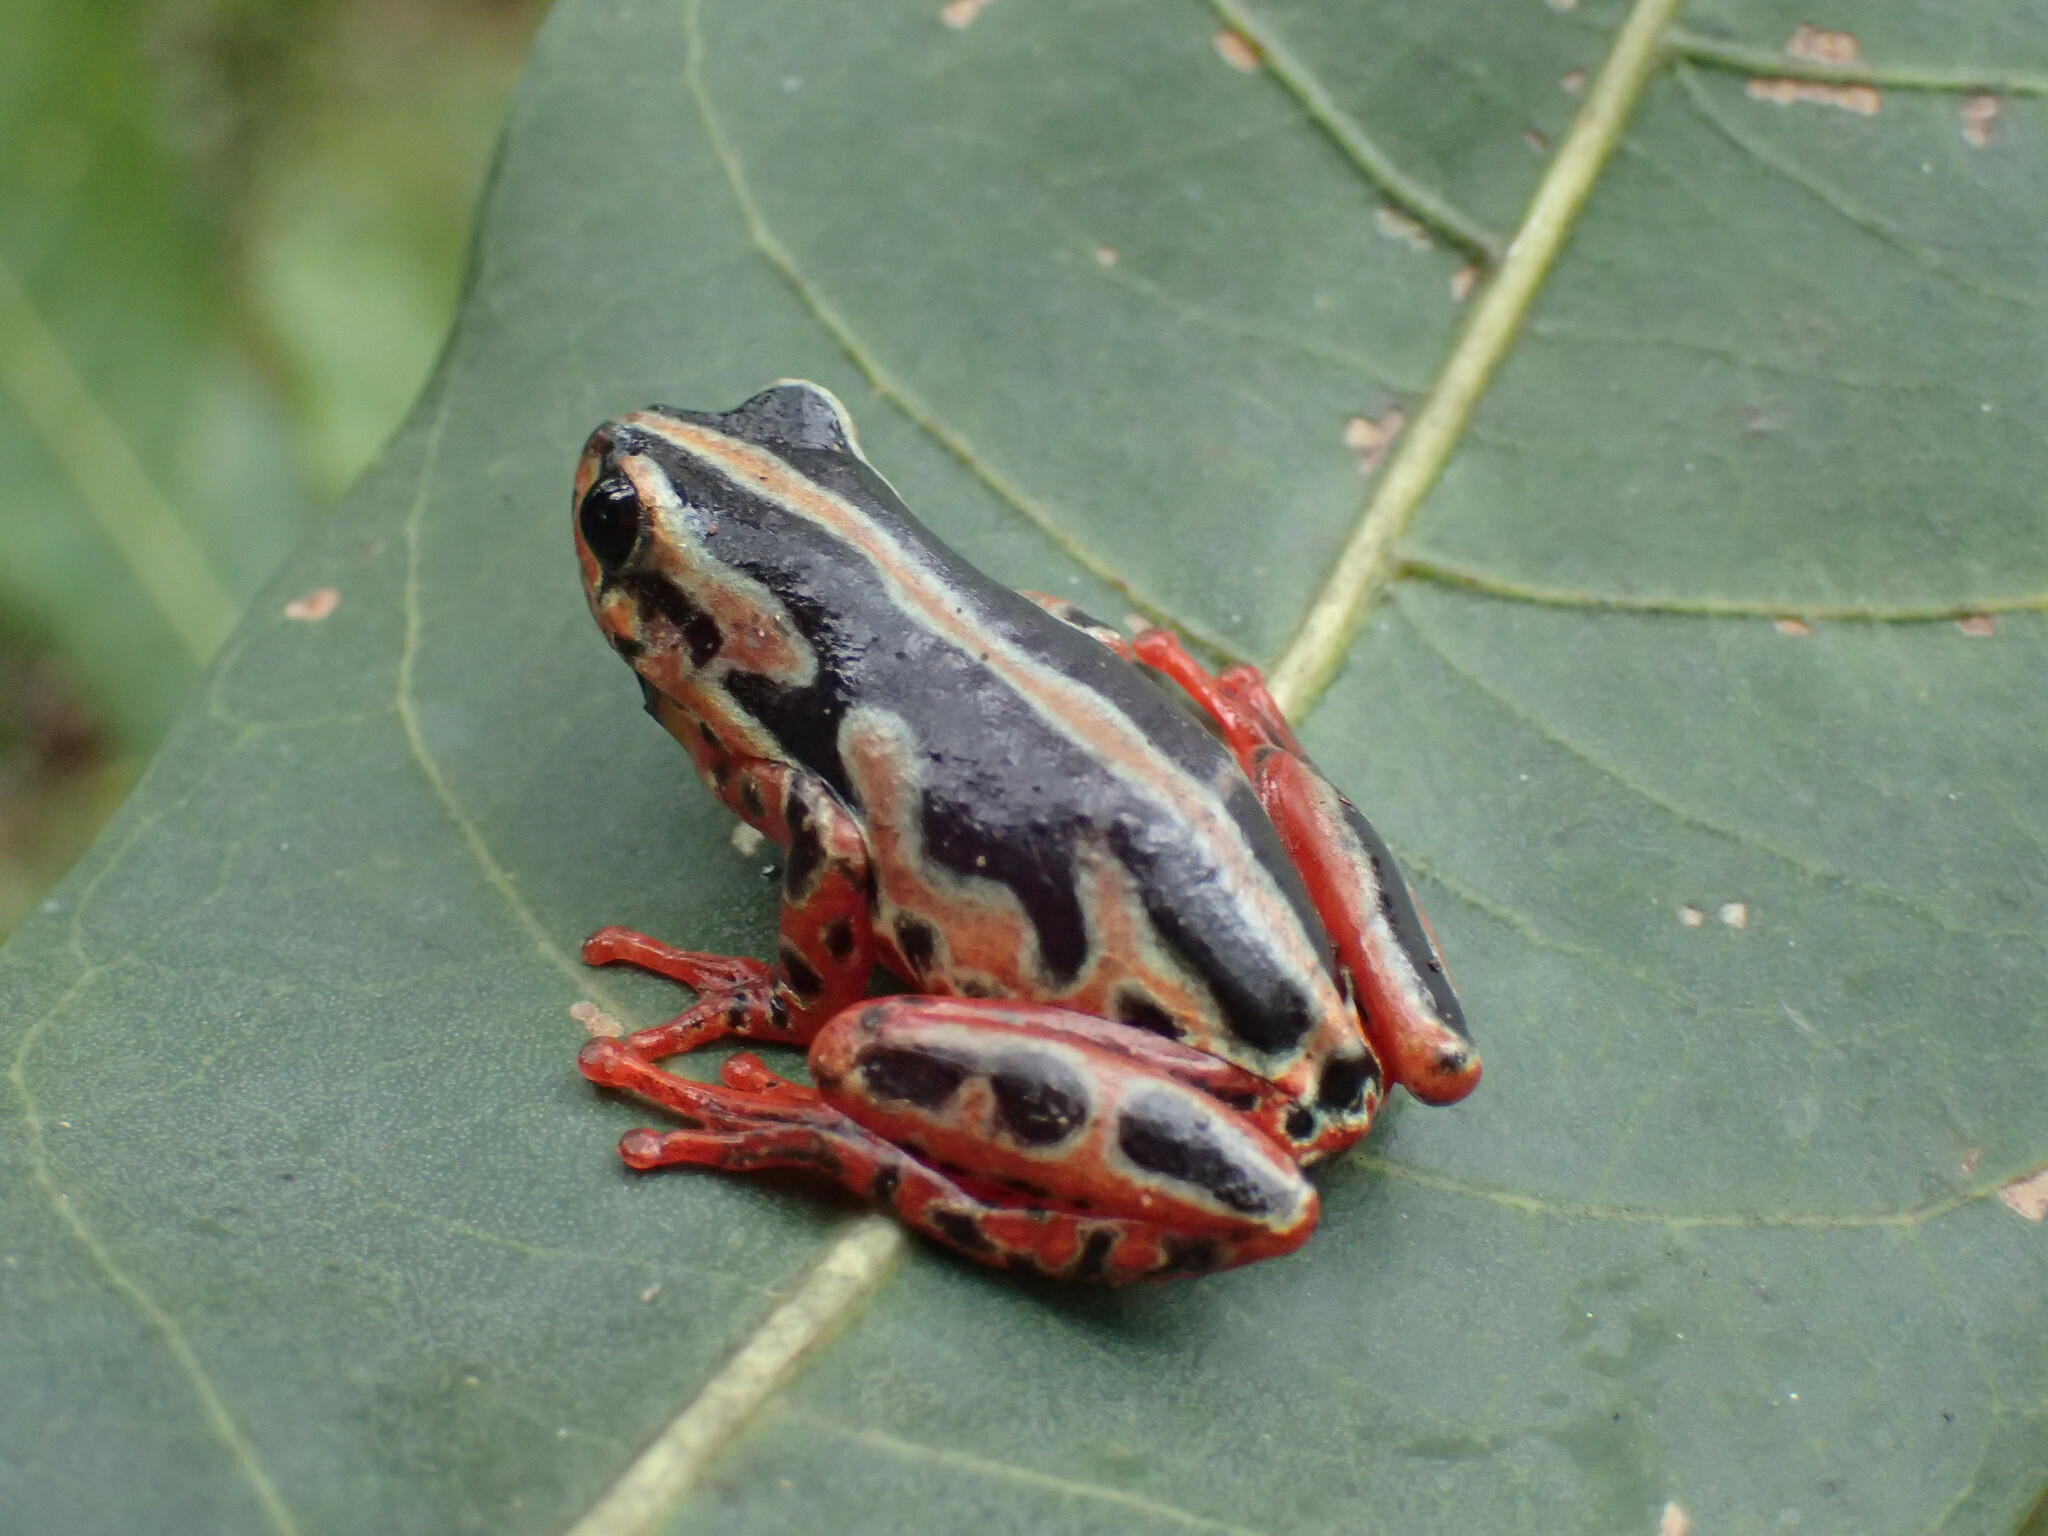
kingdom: Animalia
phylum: Chordata
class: Amphibia
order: Anura
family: Hyperoliidae
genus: Hyperolius
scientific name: Hyperolius marginatus
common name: Silver-striped sedgefrog
